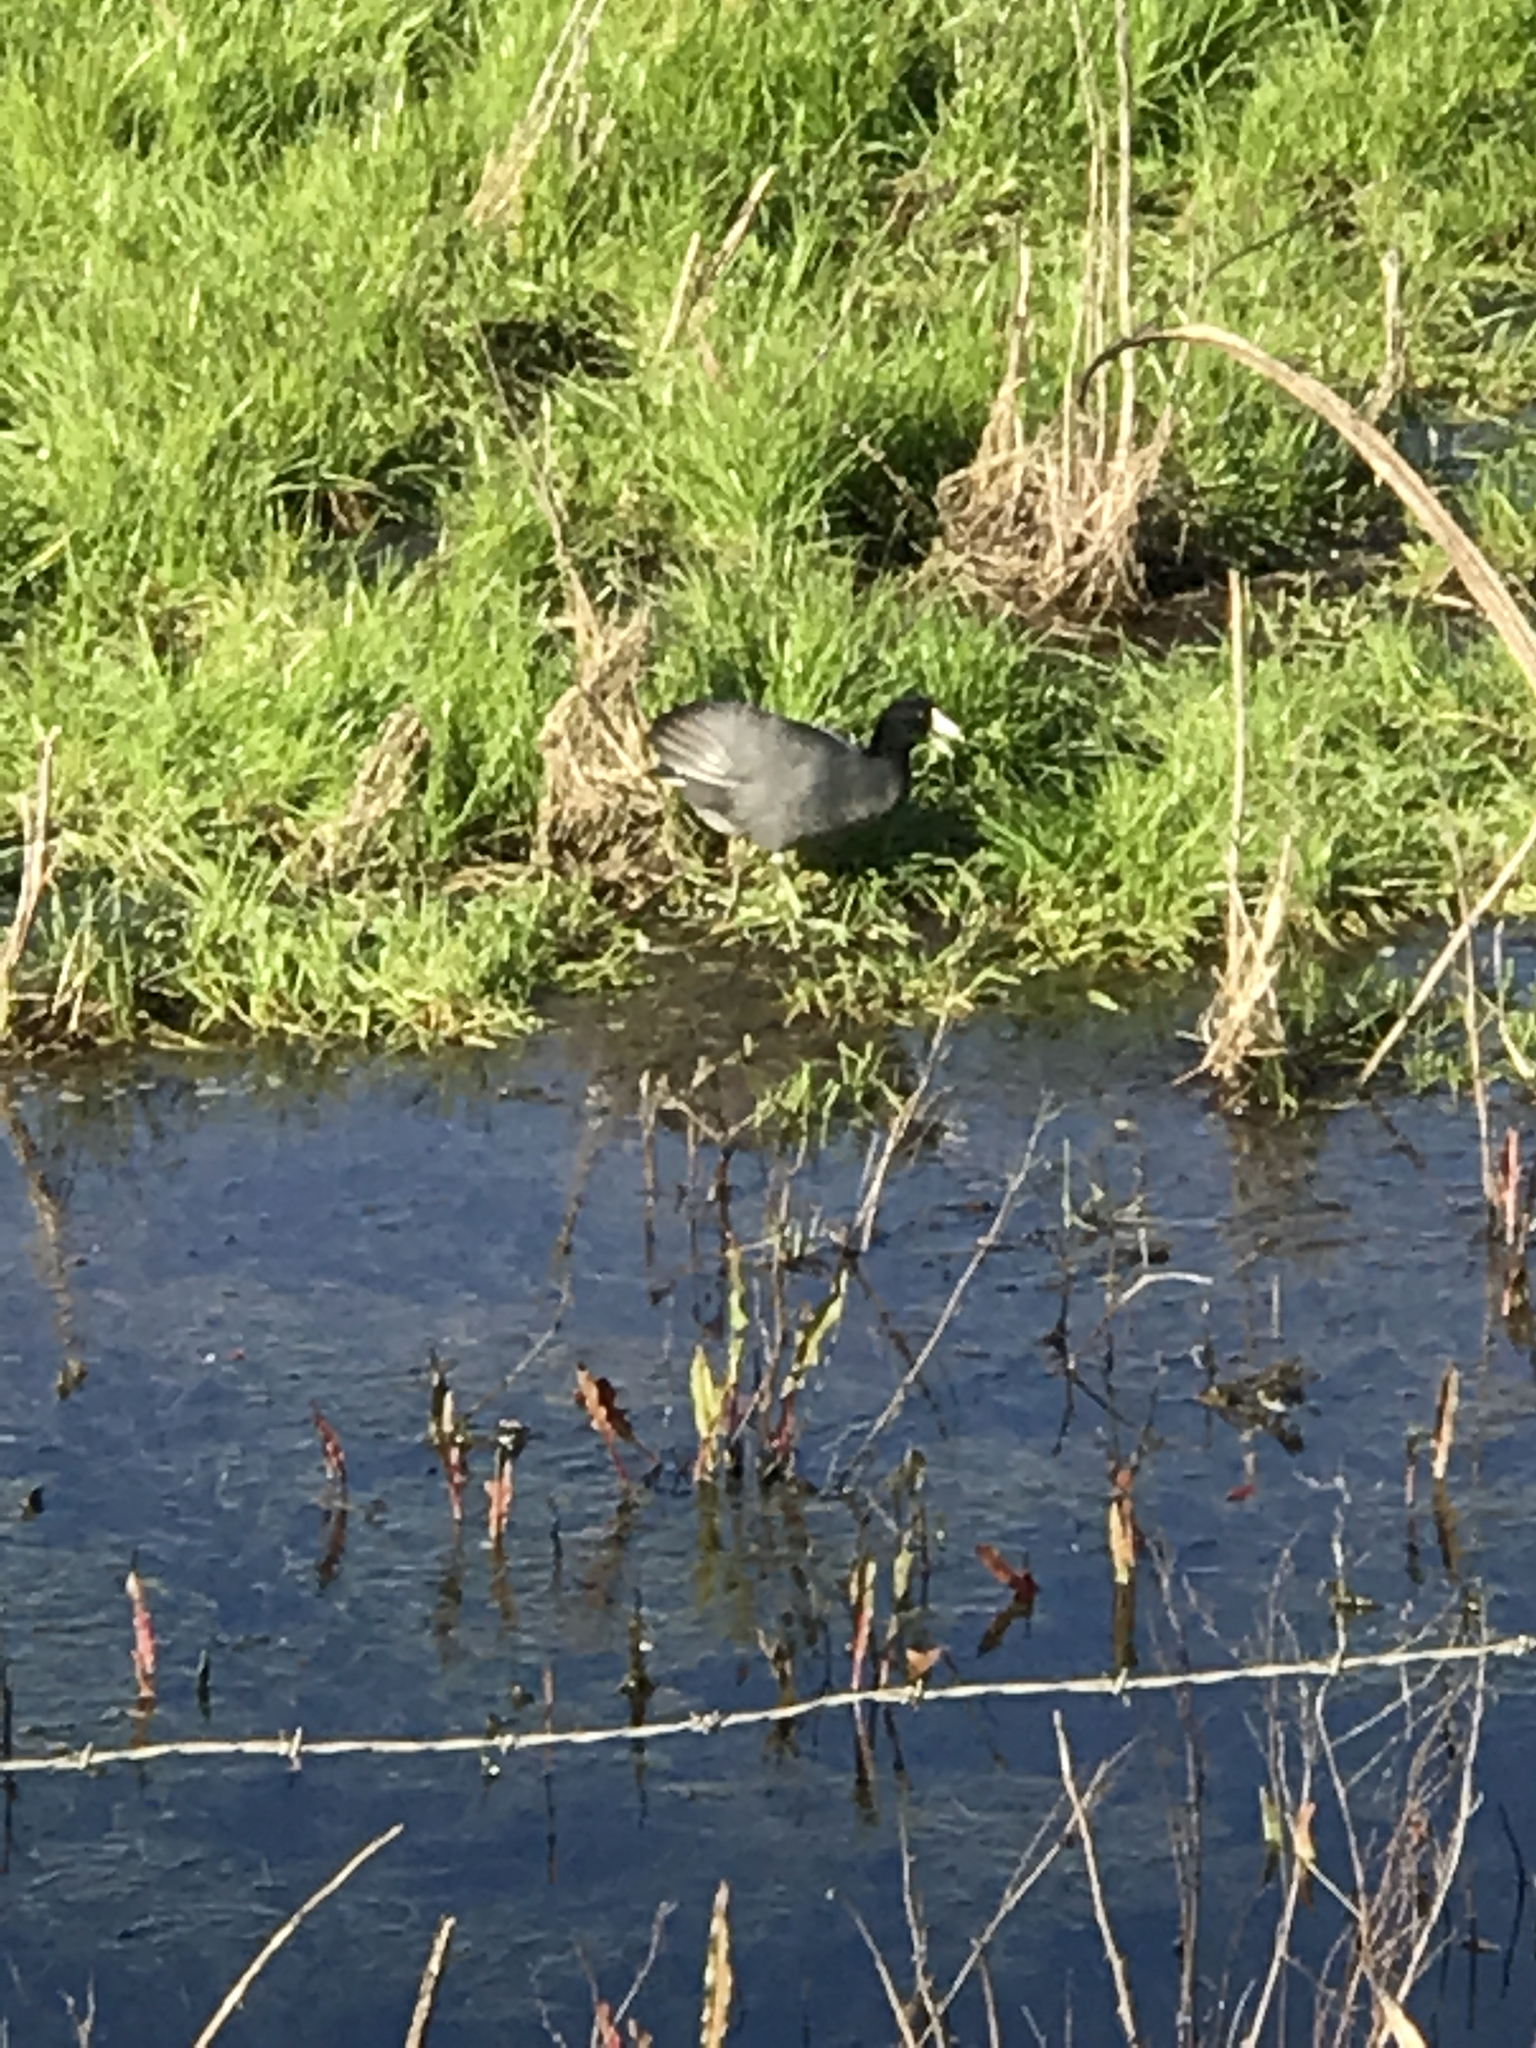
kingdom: Animalia
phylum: Chordata
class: Aves
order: Gruiformes
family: Rallidae
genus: Fulica
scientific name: Fulica americana
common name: American coot
